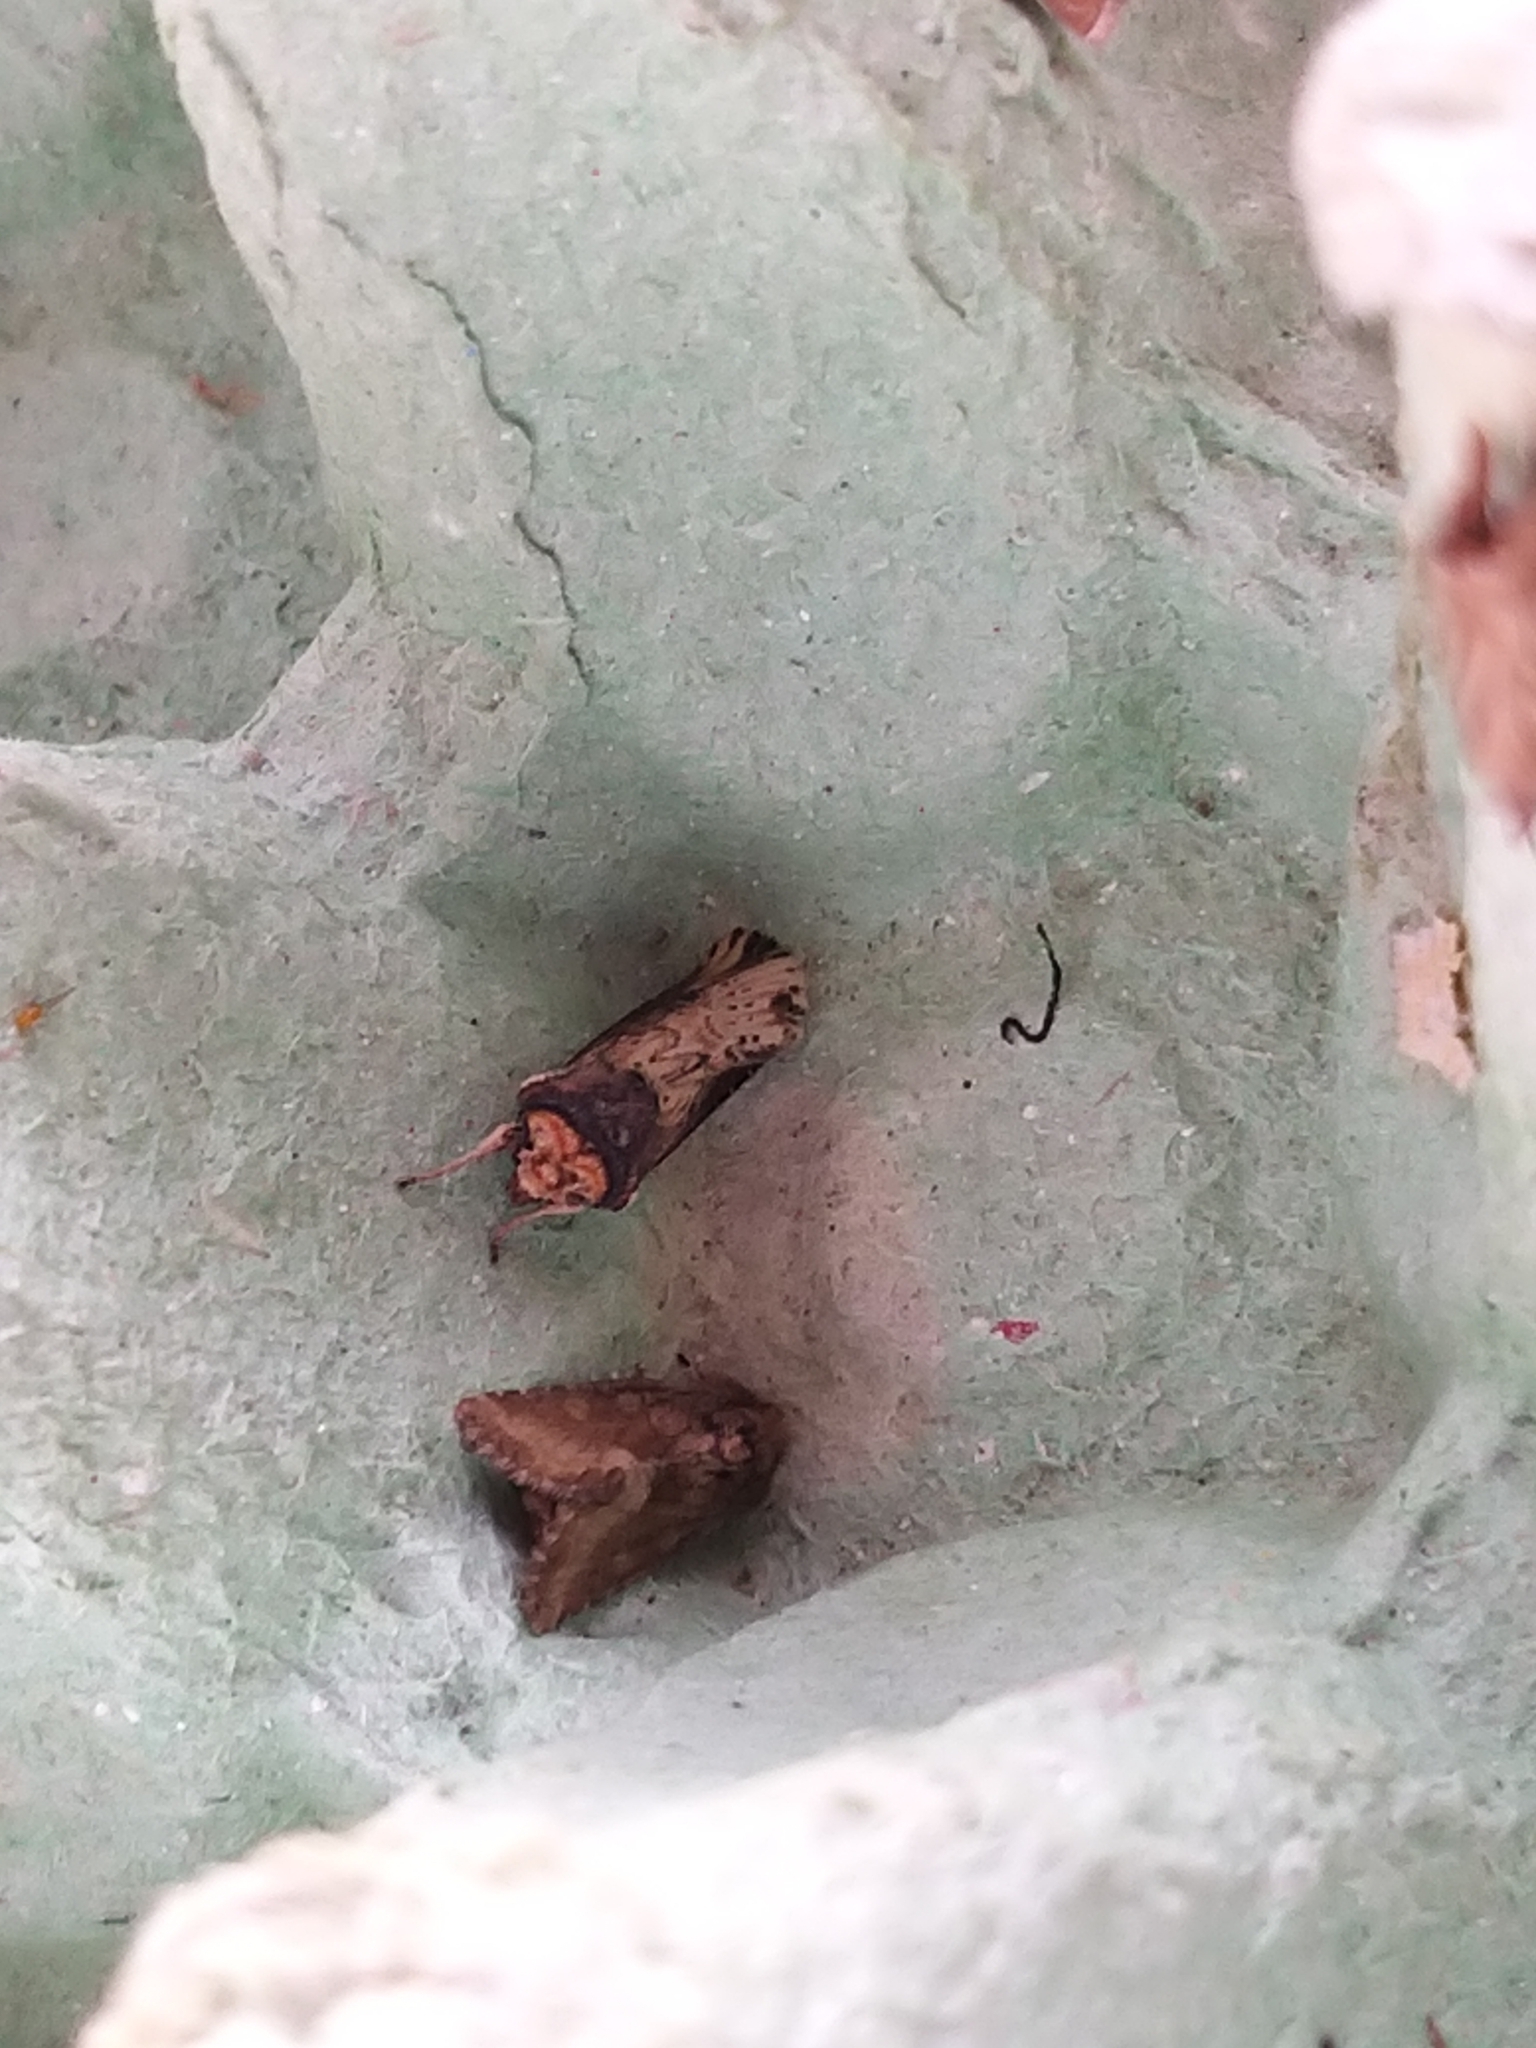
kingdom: Animalia
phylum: Arthropoda
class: Insecta
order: Lepidoptera
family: Noctuidae
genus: Axylia
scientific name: Axylia putris
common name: Flame
